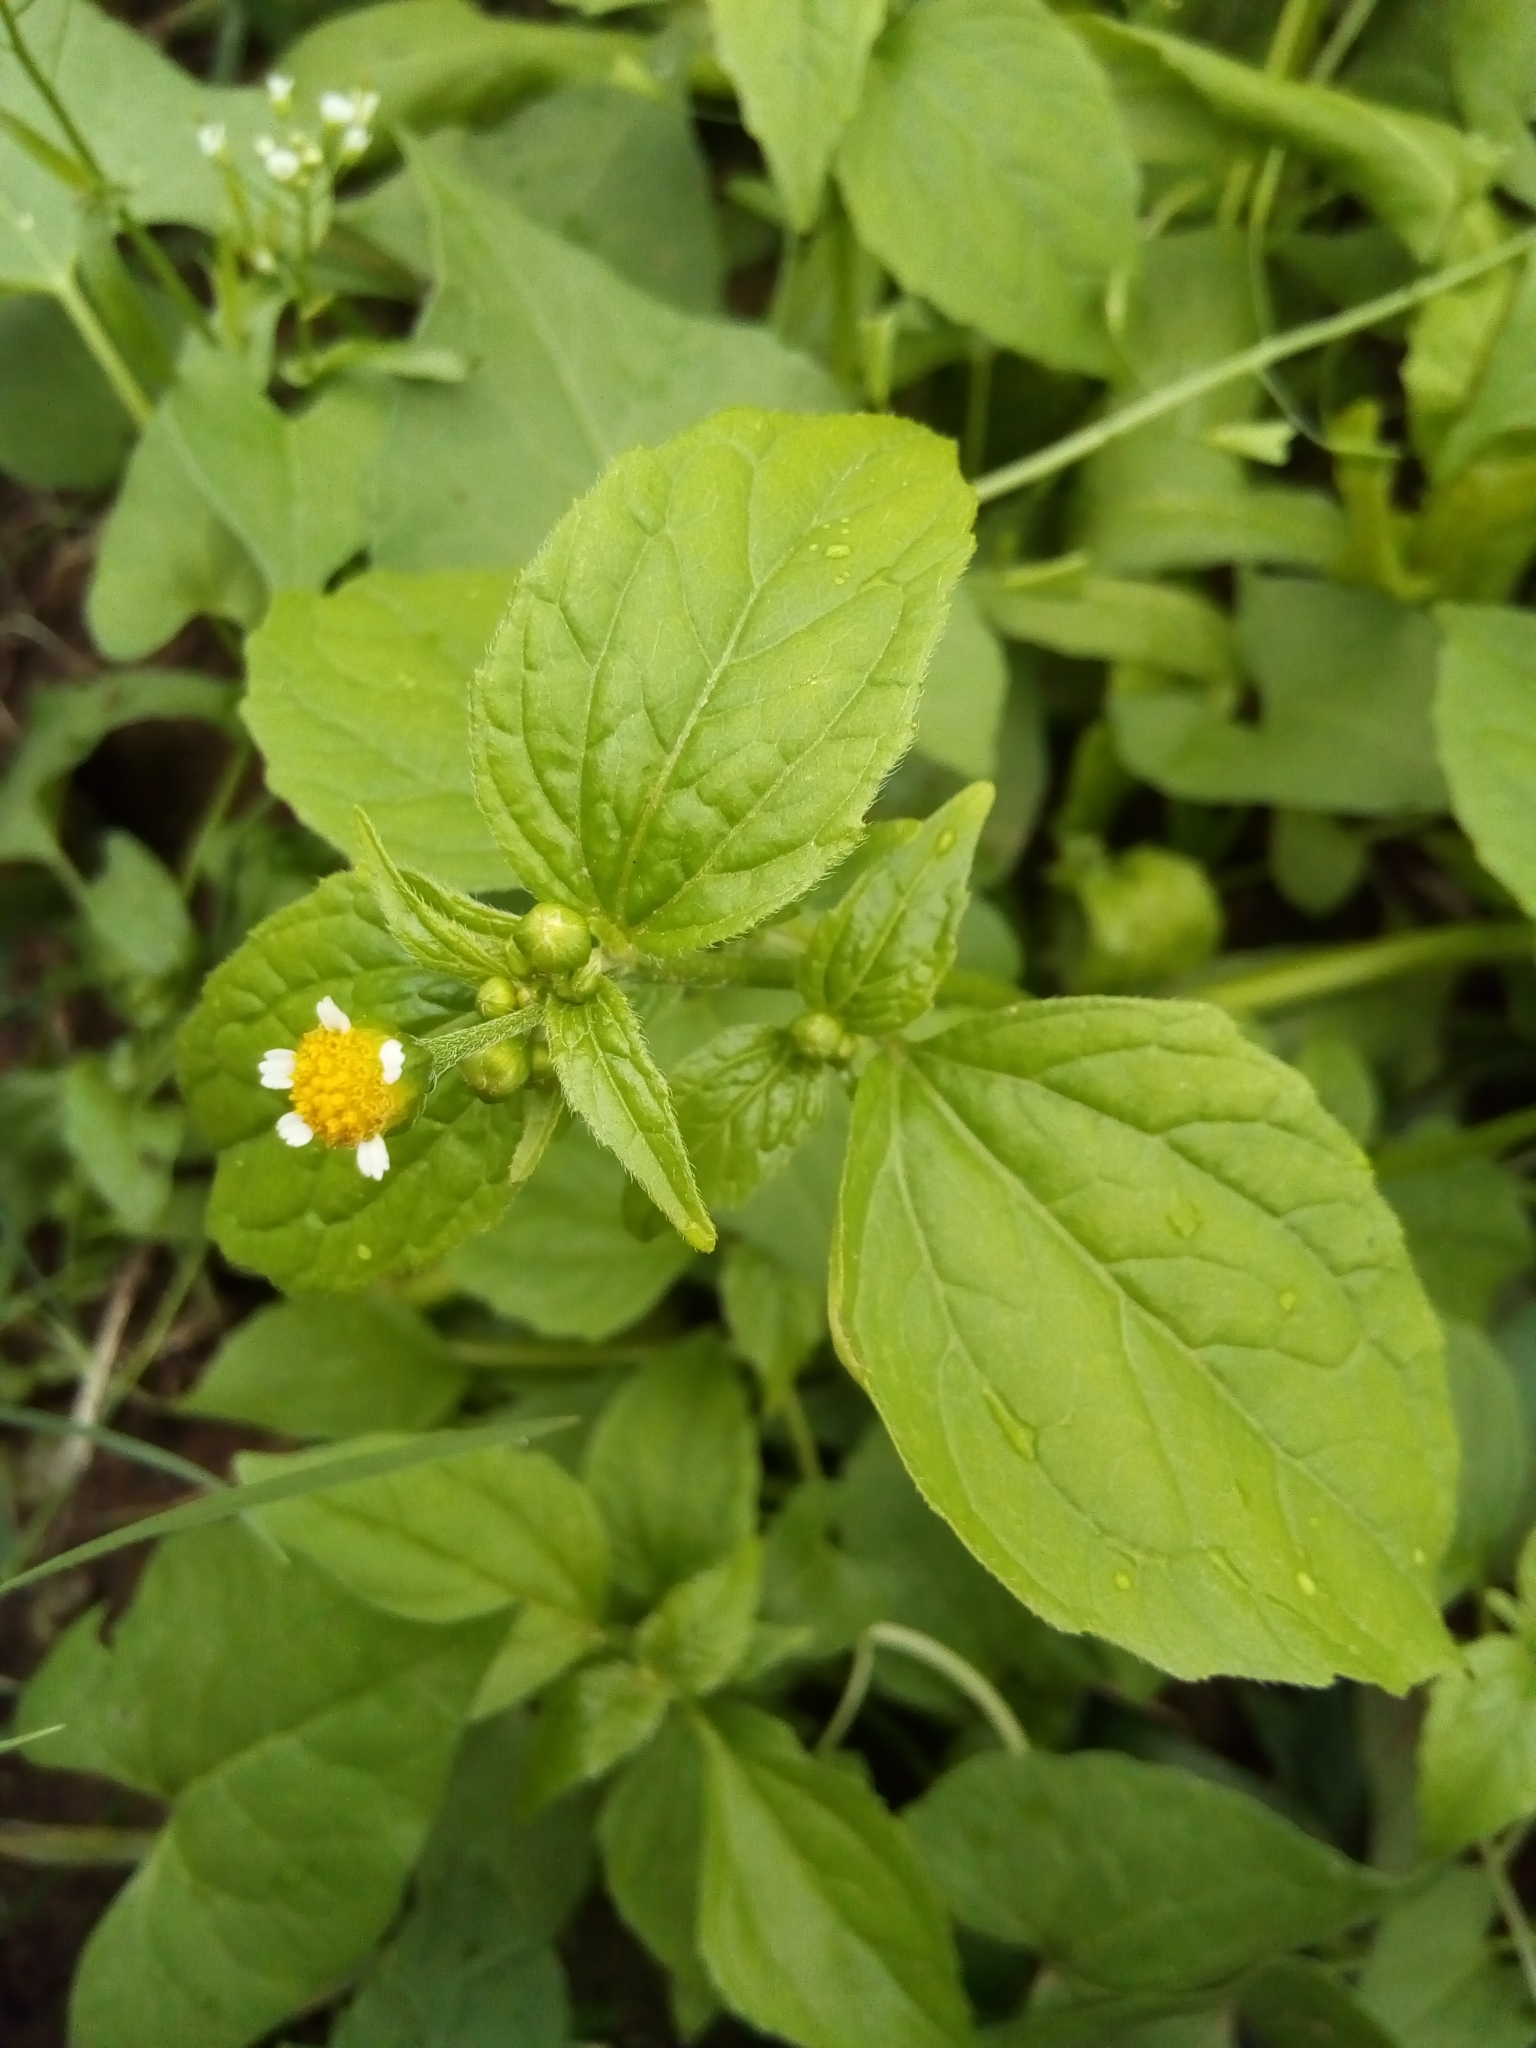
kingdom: Plantae
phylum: Tracheophyta
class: Magnoliopsida
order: Asterales
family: Asteraceae
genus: Galinsoga
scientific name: Galinsoga parviflora
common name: Gallant soldier
